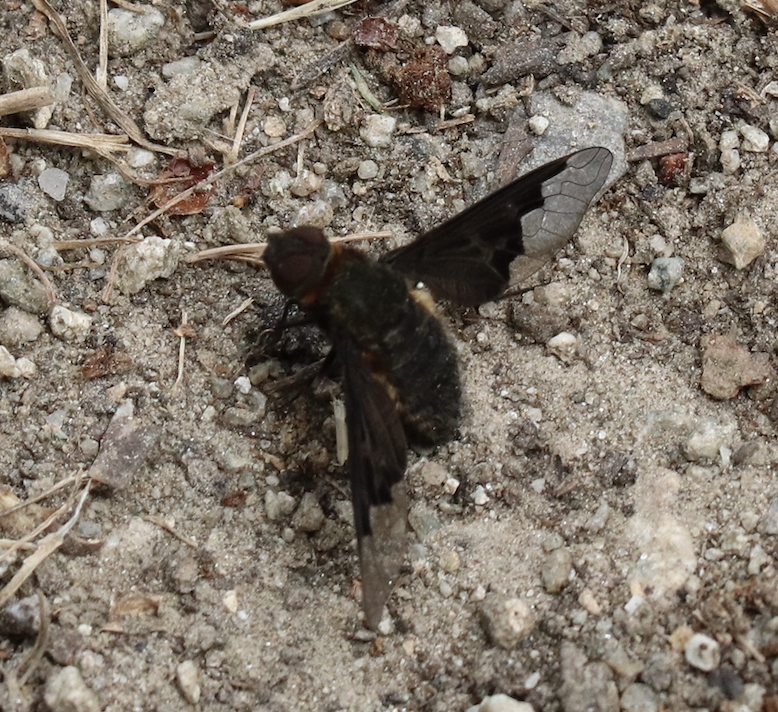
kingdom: Animalia
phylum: Arthropoda
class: Insecta
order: Diptera
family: Bombyliidae
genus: Hemipenthes
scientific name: Hemipenthes morio
